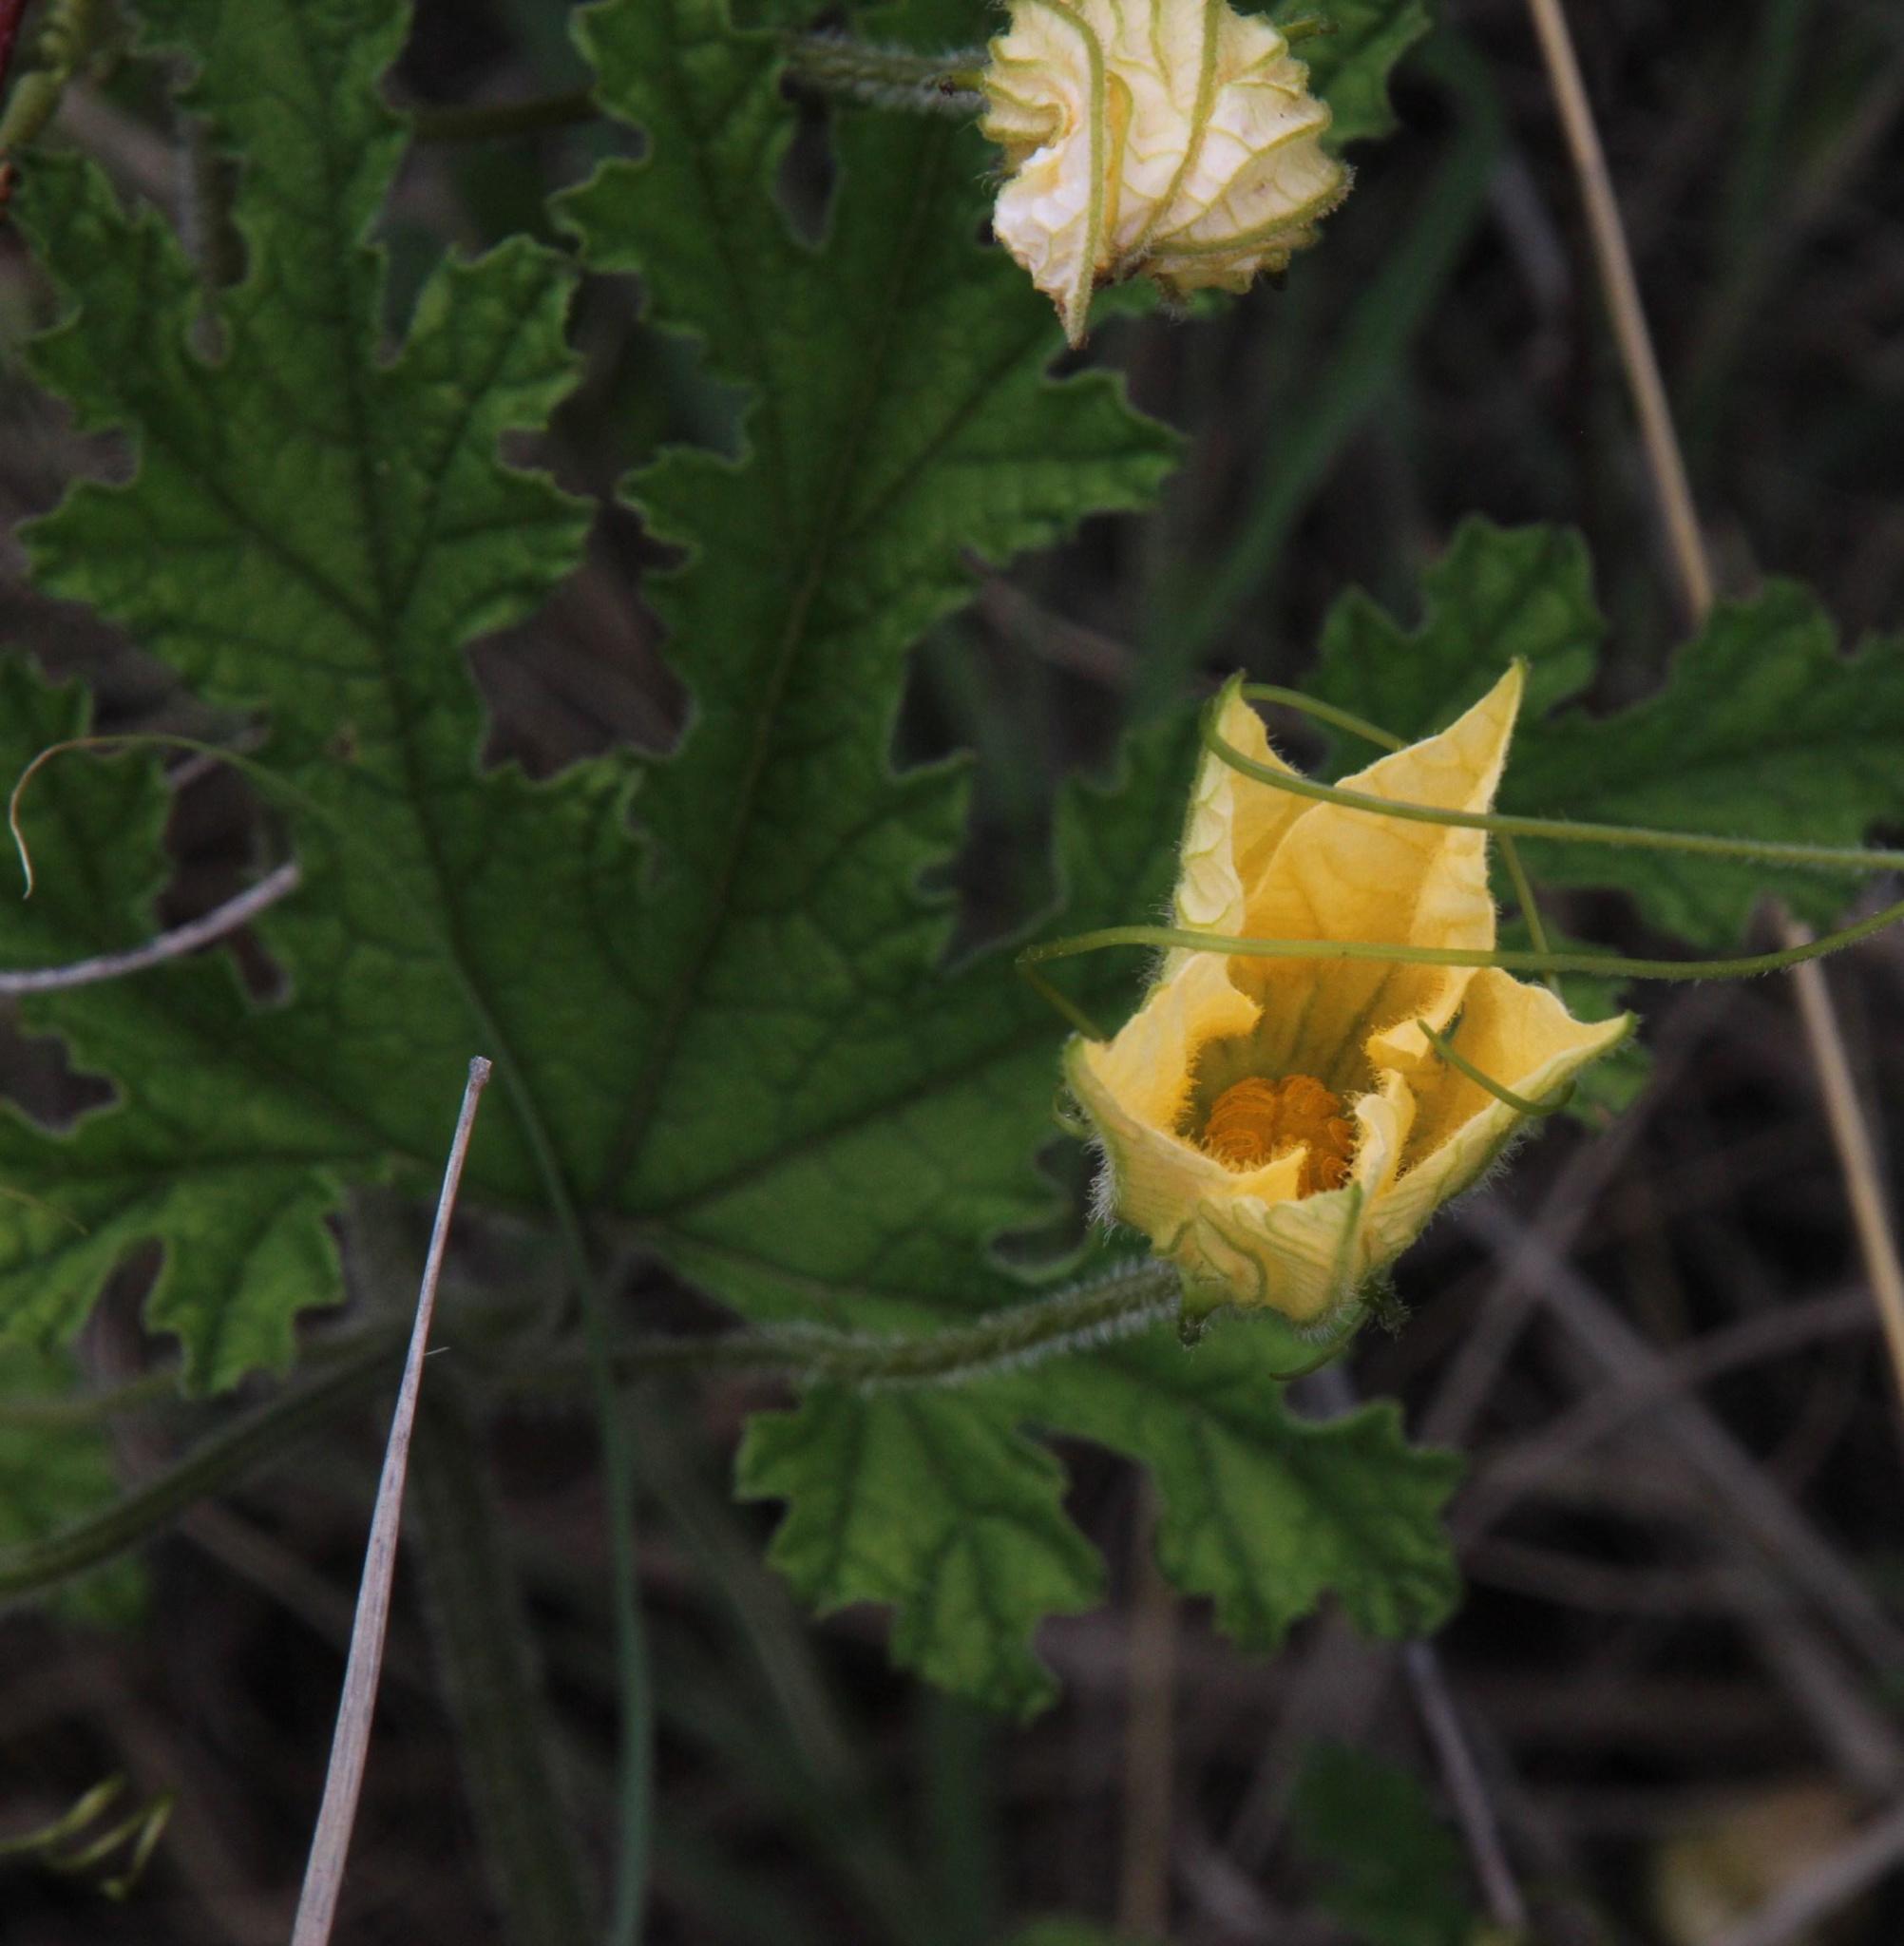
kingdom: Plantae
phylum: Tracheophyta
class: Magnoliopsida
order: Cucurbitales
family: Cucurbitaceae
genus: Coccinia
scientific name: Coccinia hirtella
